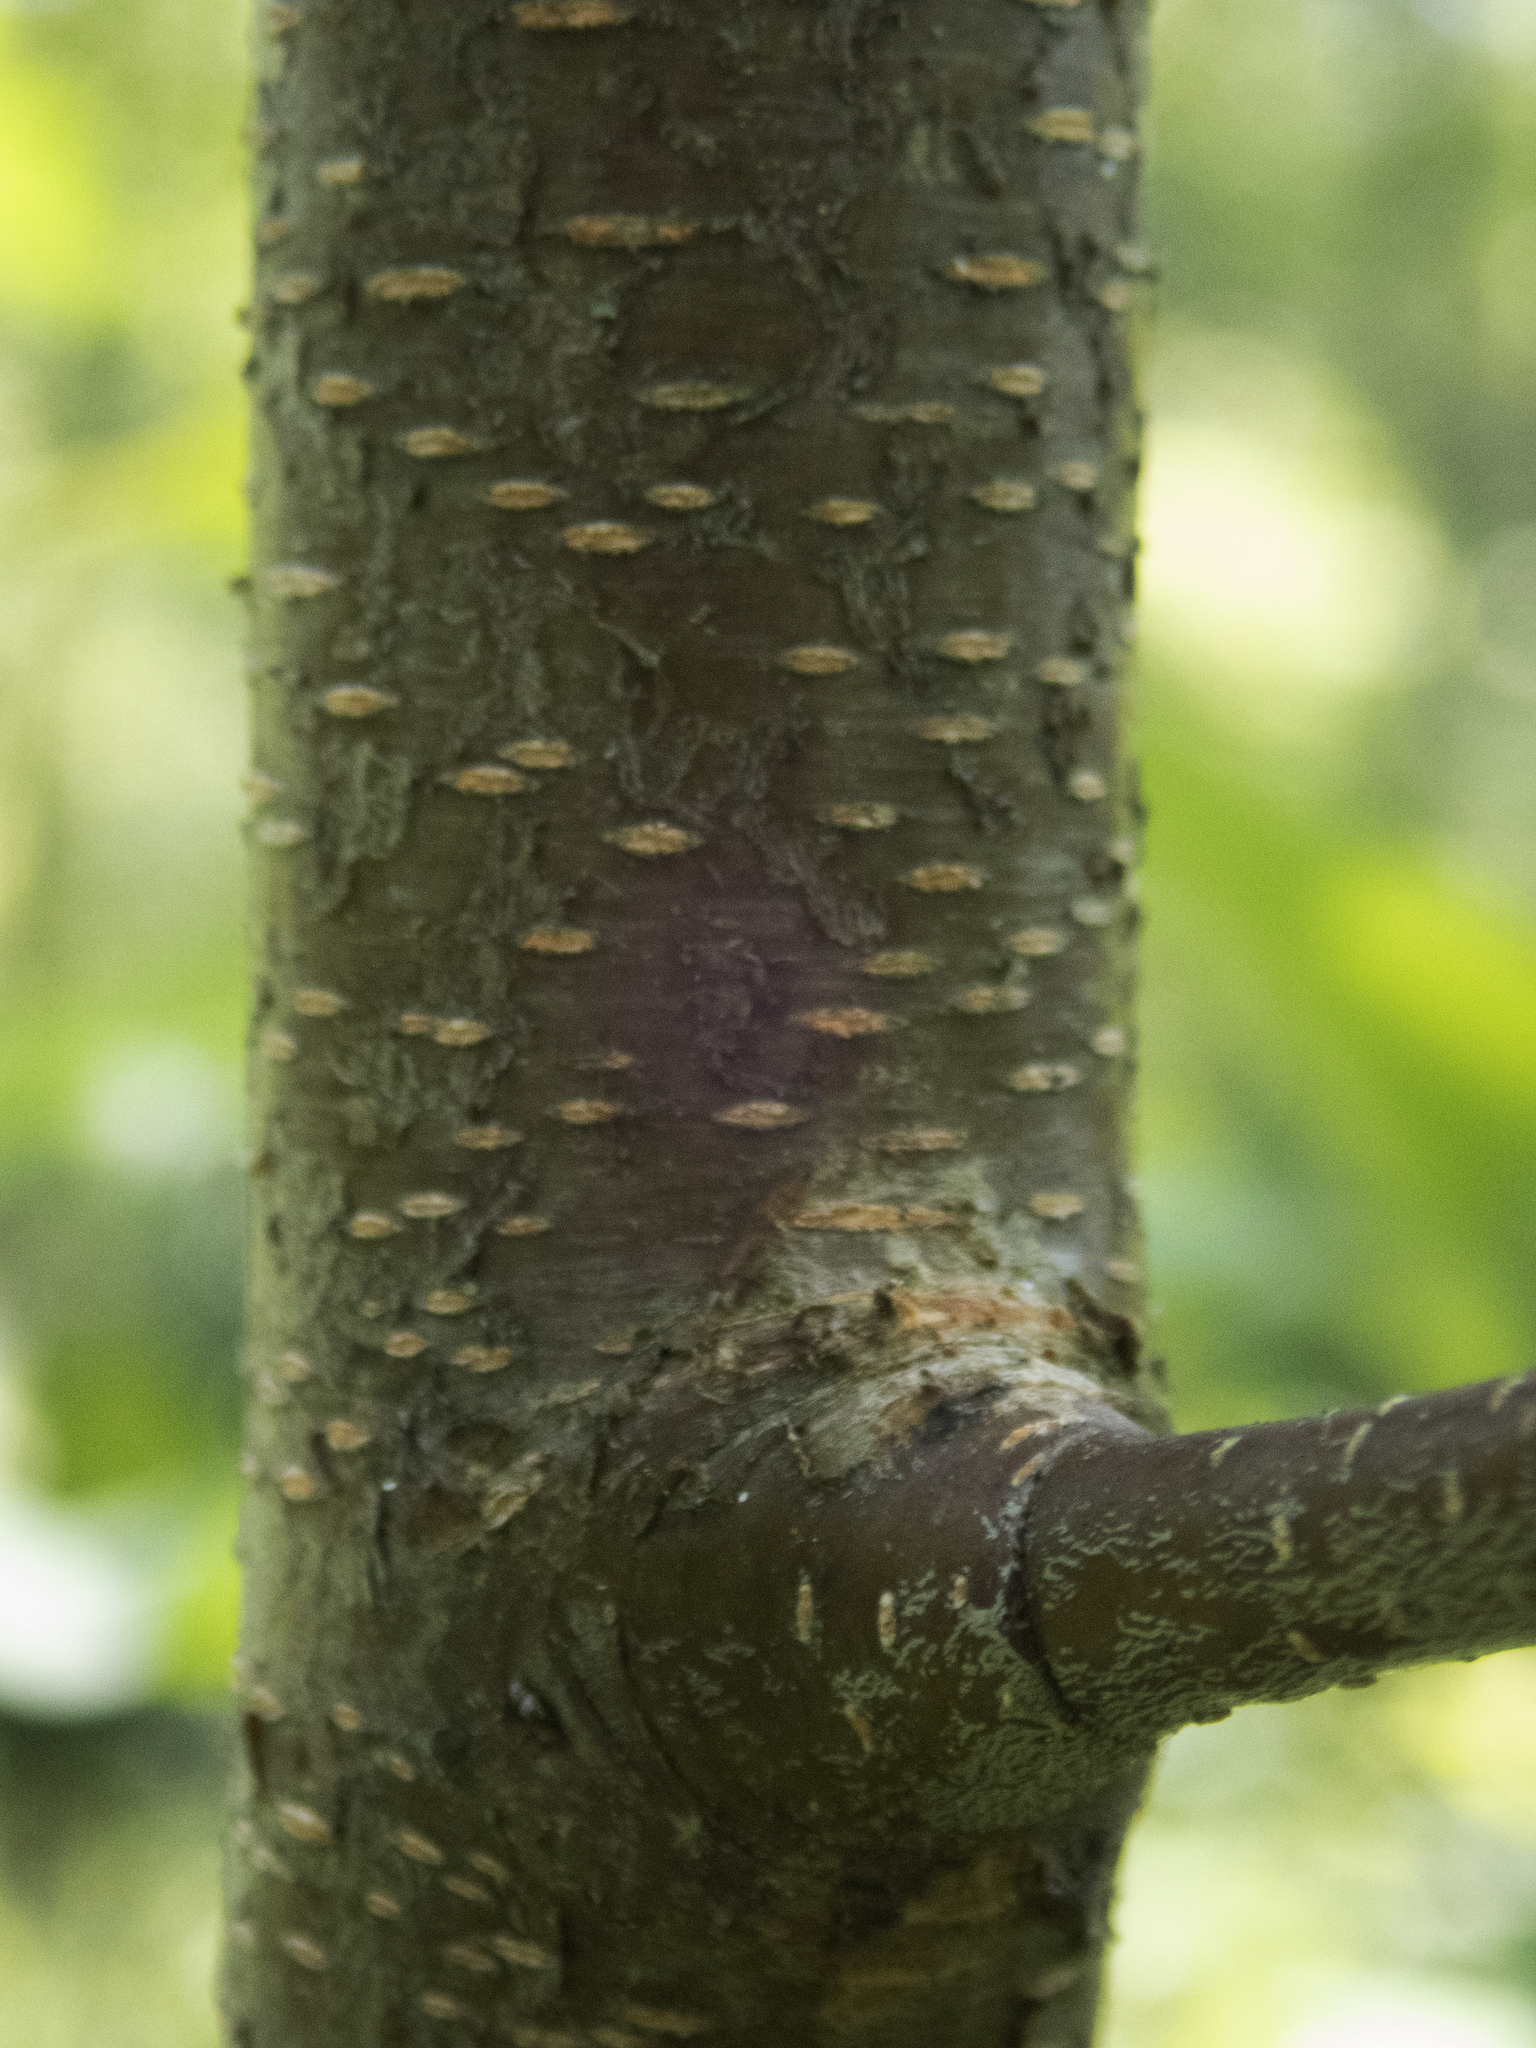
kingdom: Plantae
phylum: Tracheophyta
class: Magnoliopsida
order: Rosales
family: Rosaceae
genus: Prunus
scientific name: Prunus serotina
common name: Black cherry
